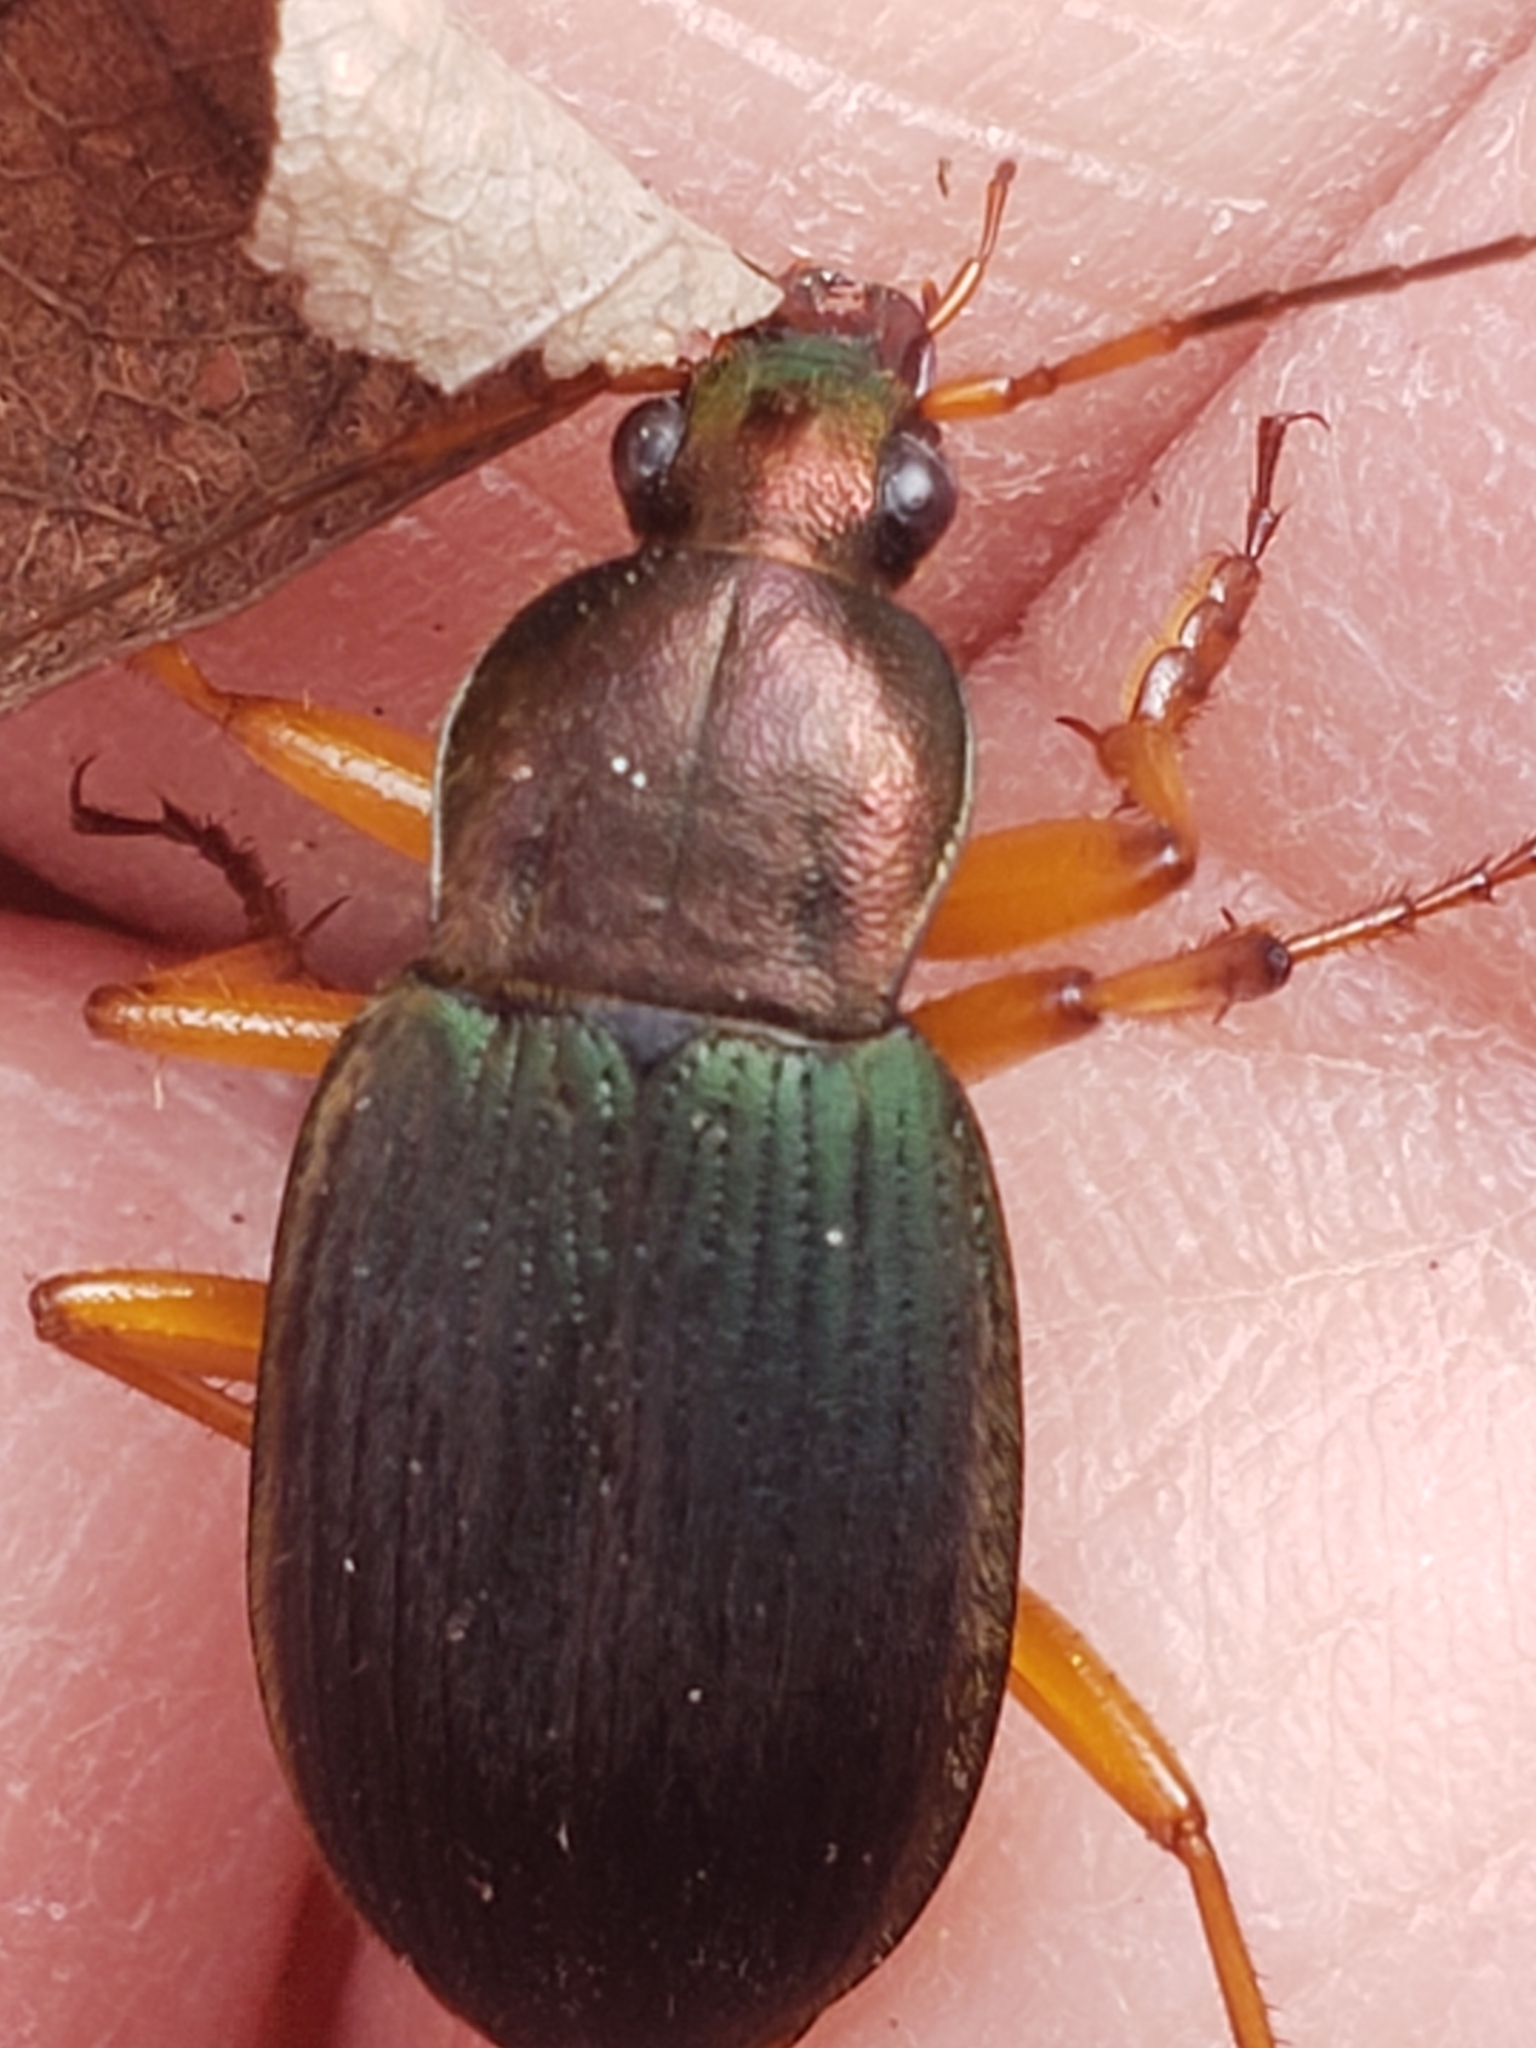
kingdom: Animalia
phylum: Arthropoda
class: Insecta
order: Coleoptera
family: Carabidae
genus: Chlaenius
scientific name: Chlaenius aestivus
